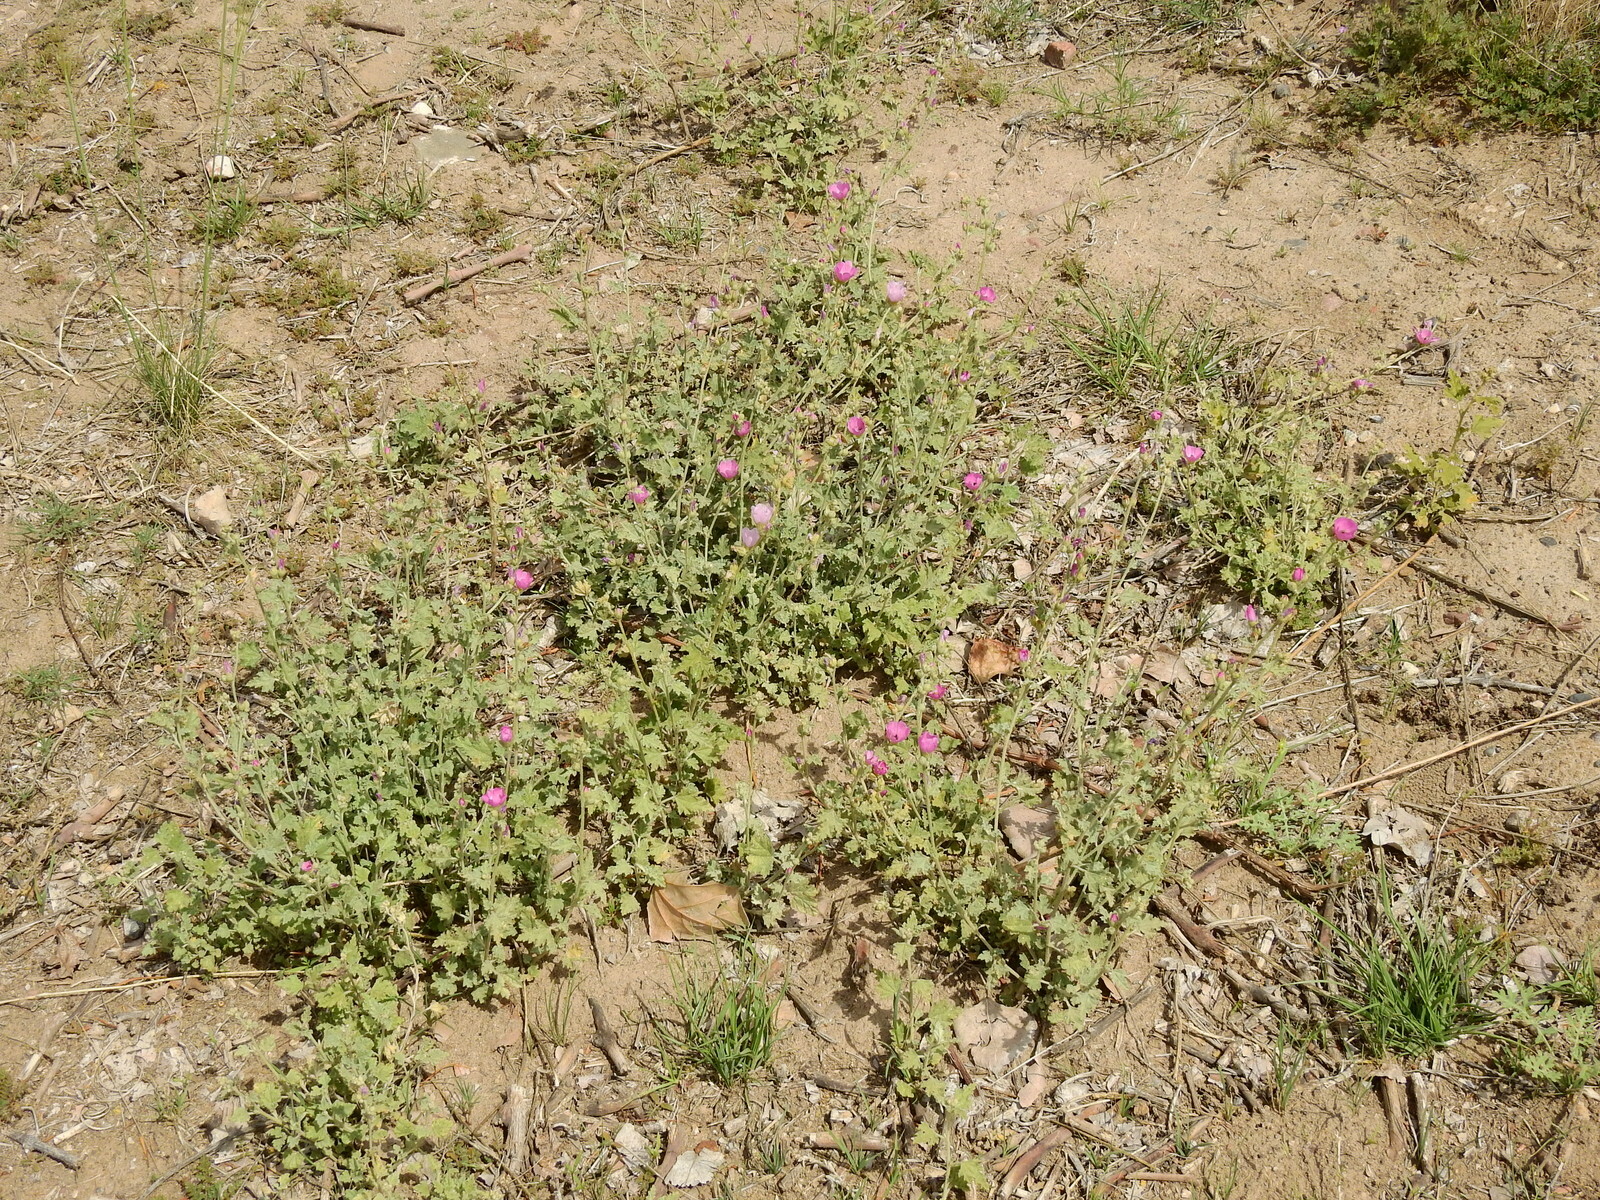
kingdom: Plantae
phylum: Tracheophyta
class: Magnoliopsida
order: Malvales
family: Malvaceae
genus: Sphaeralcea
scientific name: Sphaeralcea mendocina
